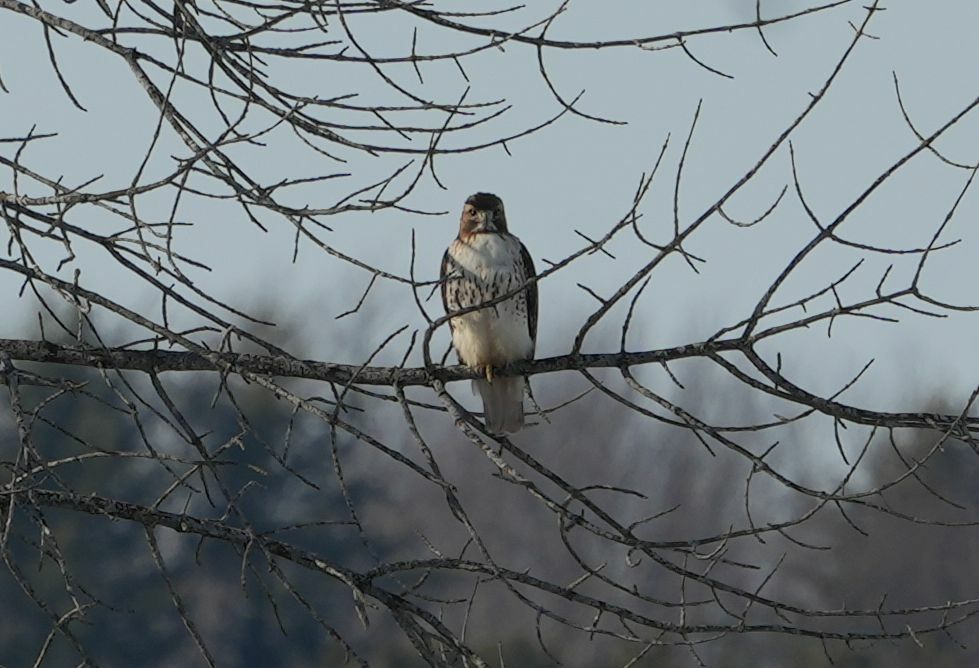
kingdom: Animalia
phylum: Chordata
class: Aves
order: Accipitriformes
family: Accipitridae
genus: Buteo
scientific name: Buteo jamaicensis
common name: Red-tailed hawk
